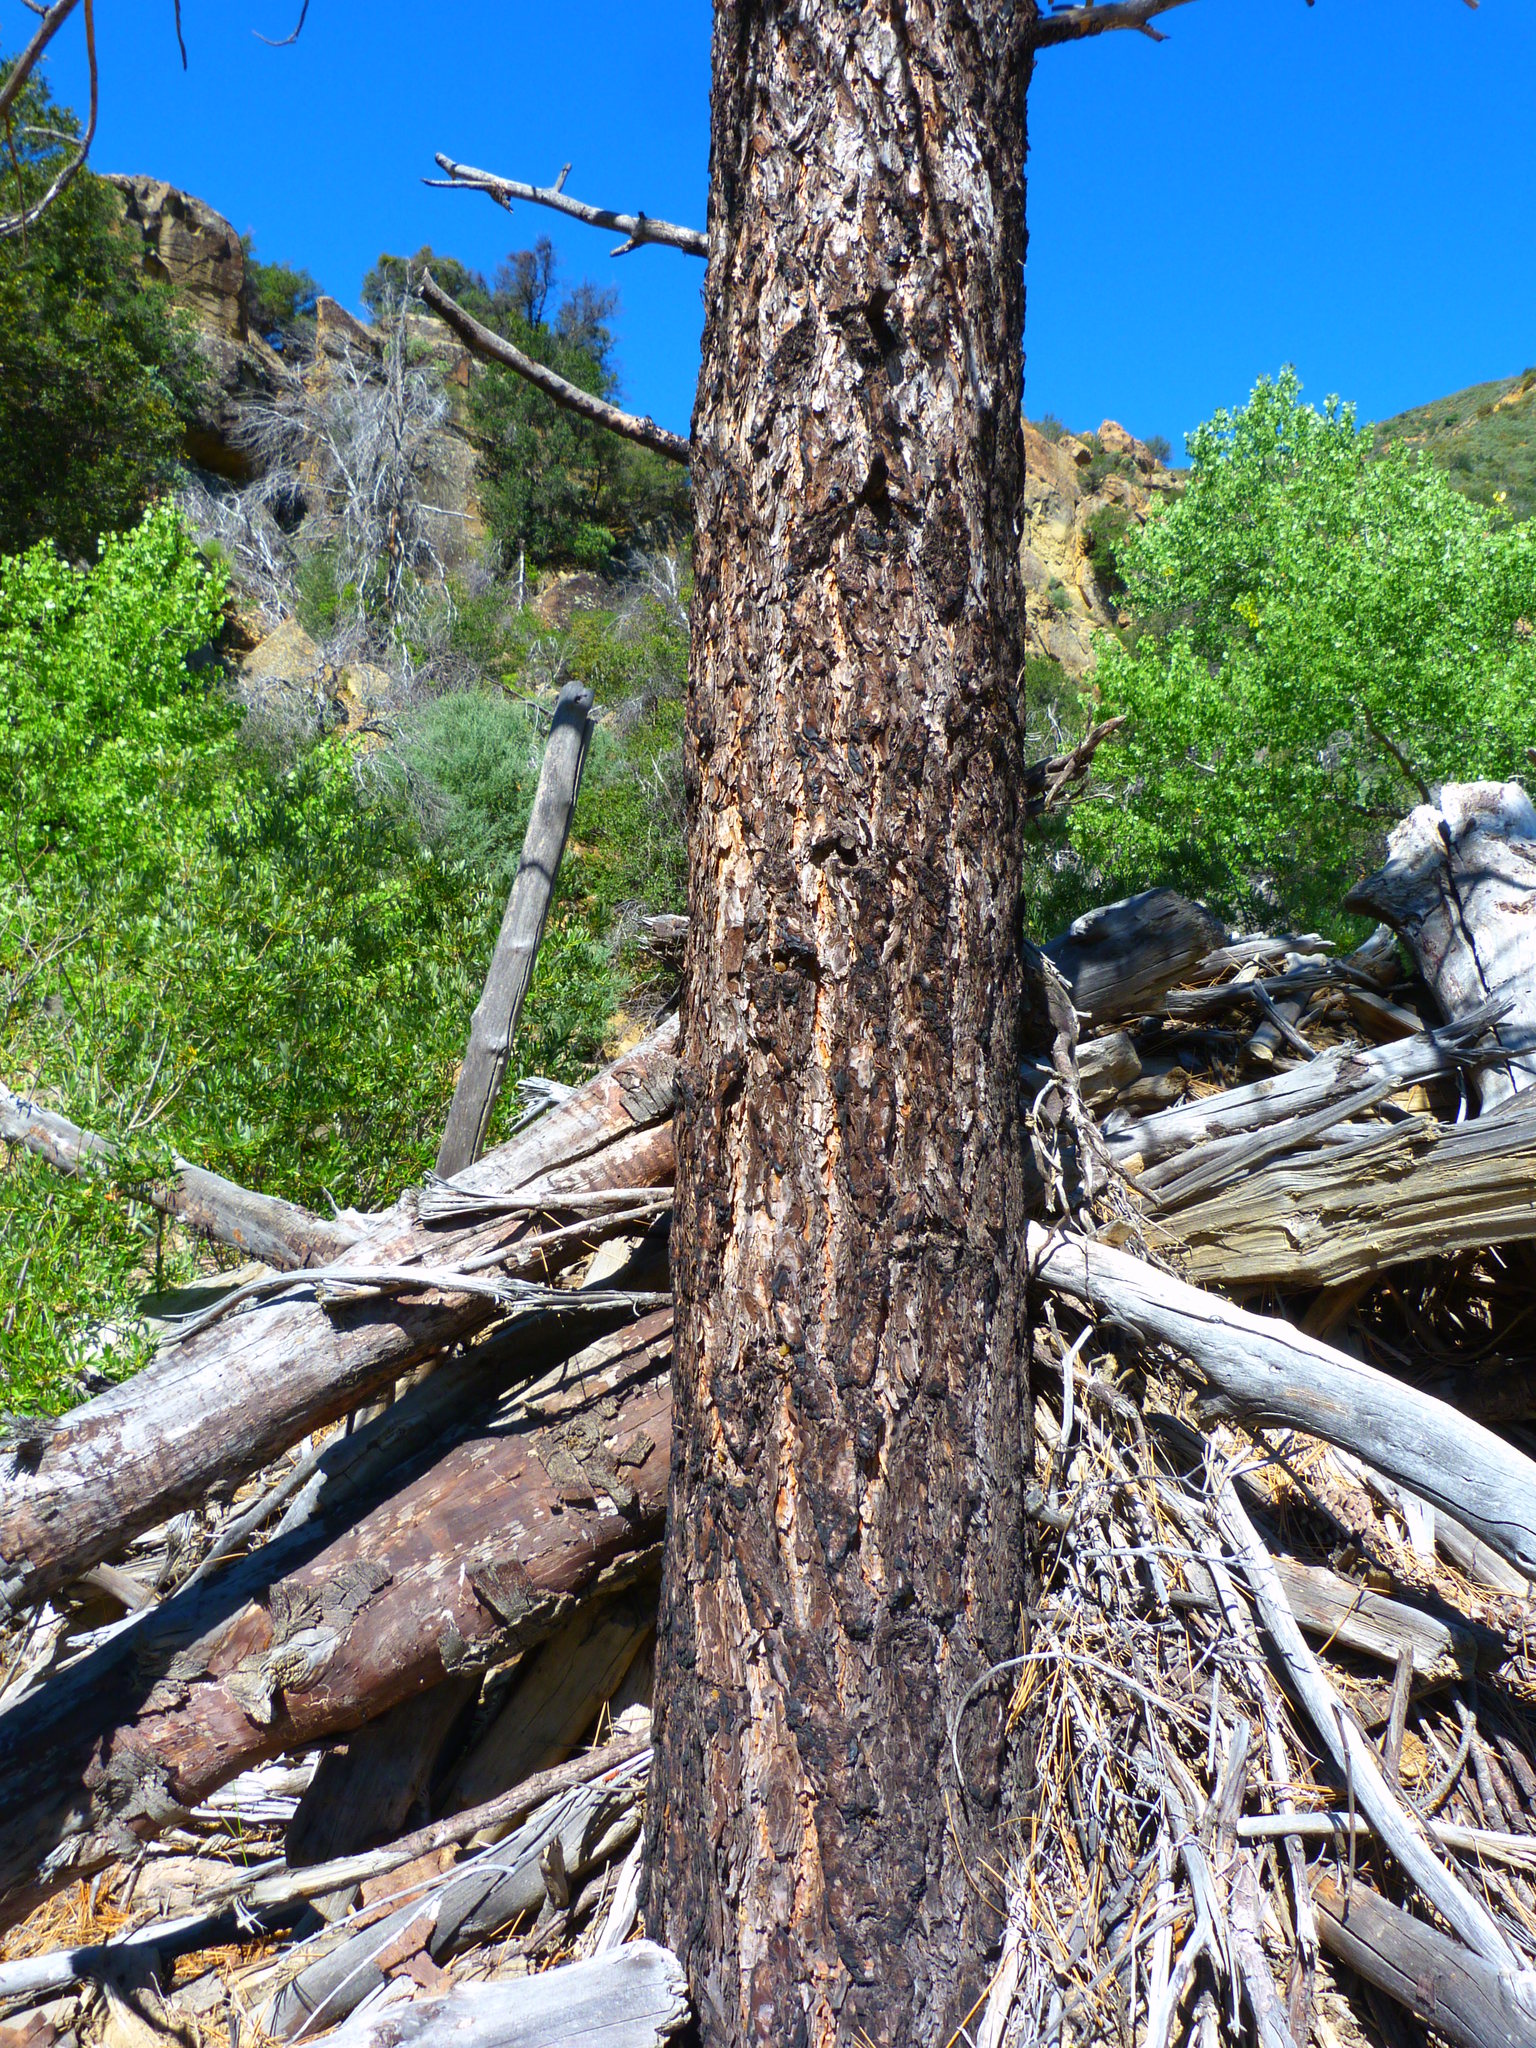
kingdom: Plantae
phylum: Tracheophyta
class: Pinopsida
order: Pinales
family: Pinaceae
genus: Pinus
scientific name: Pinus jeffreyi
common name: Jeffrey pine
